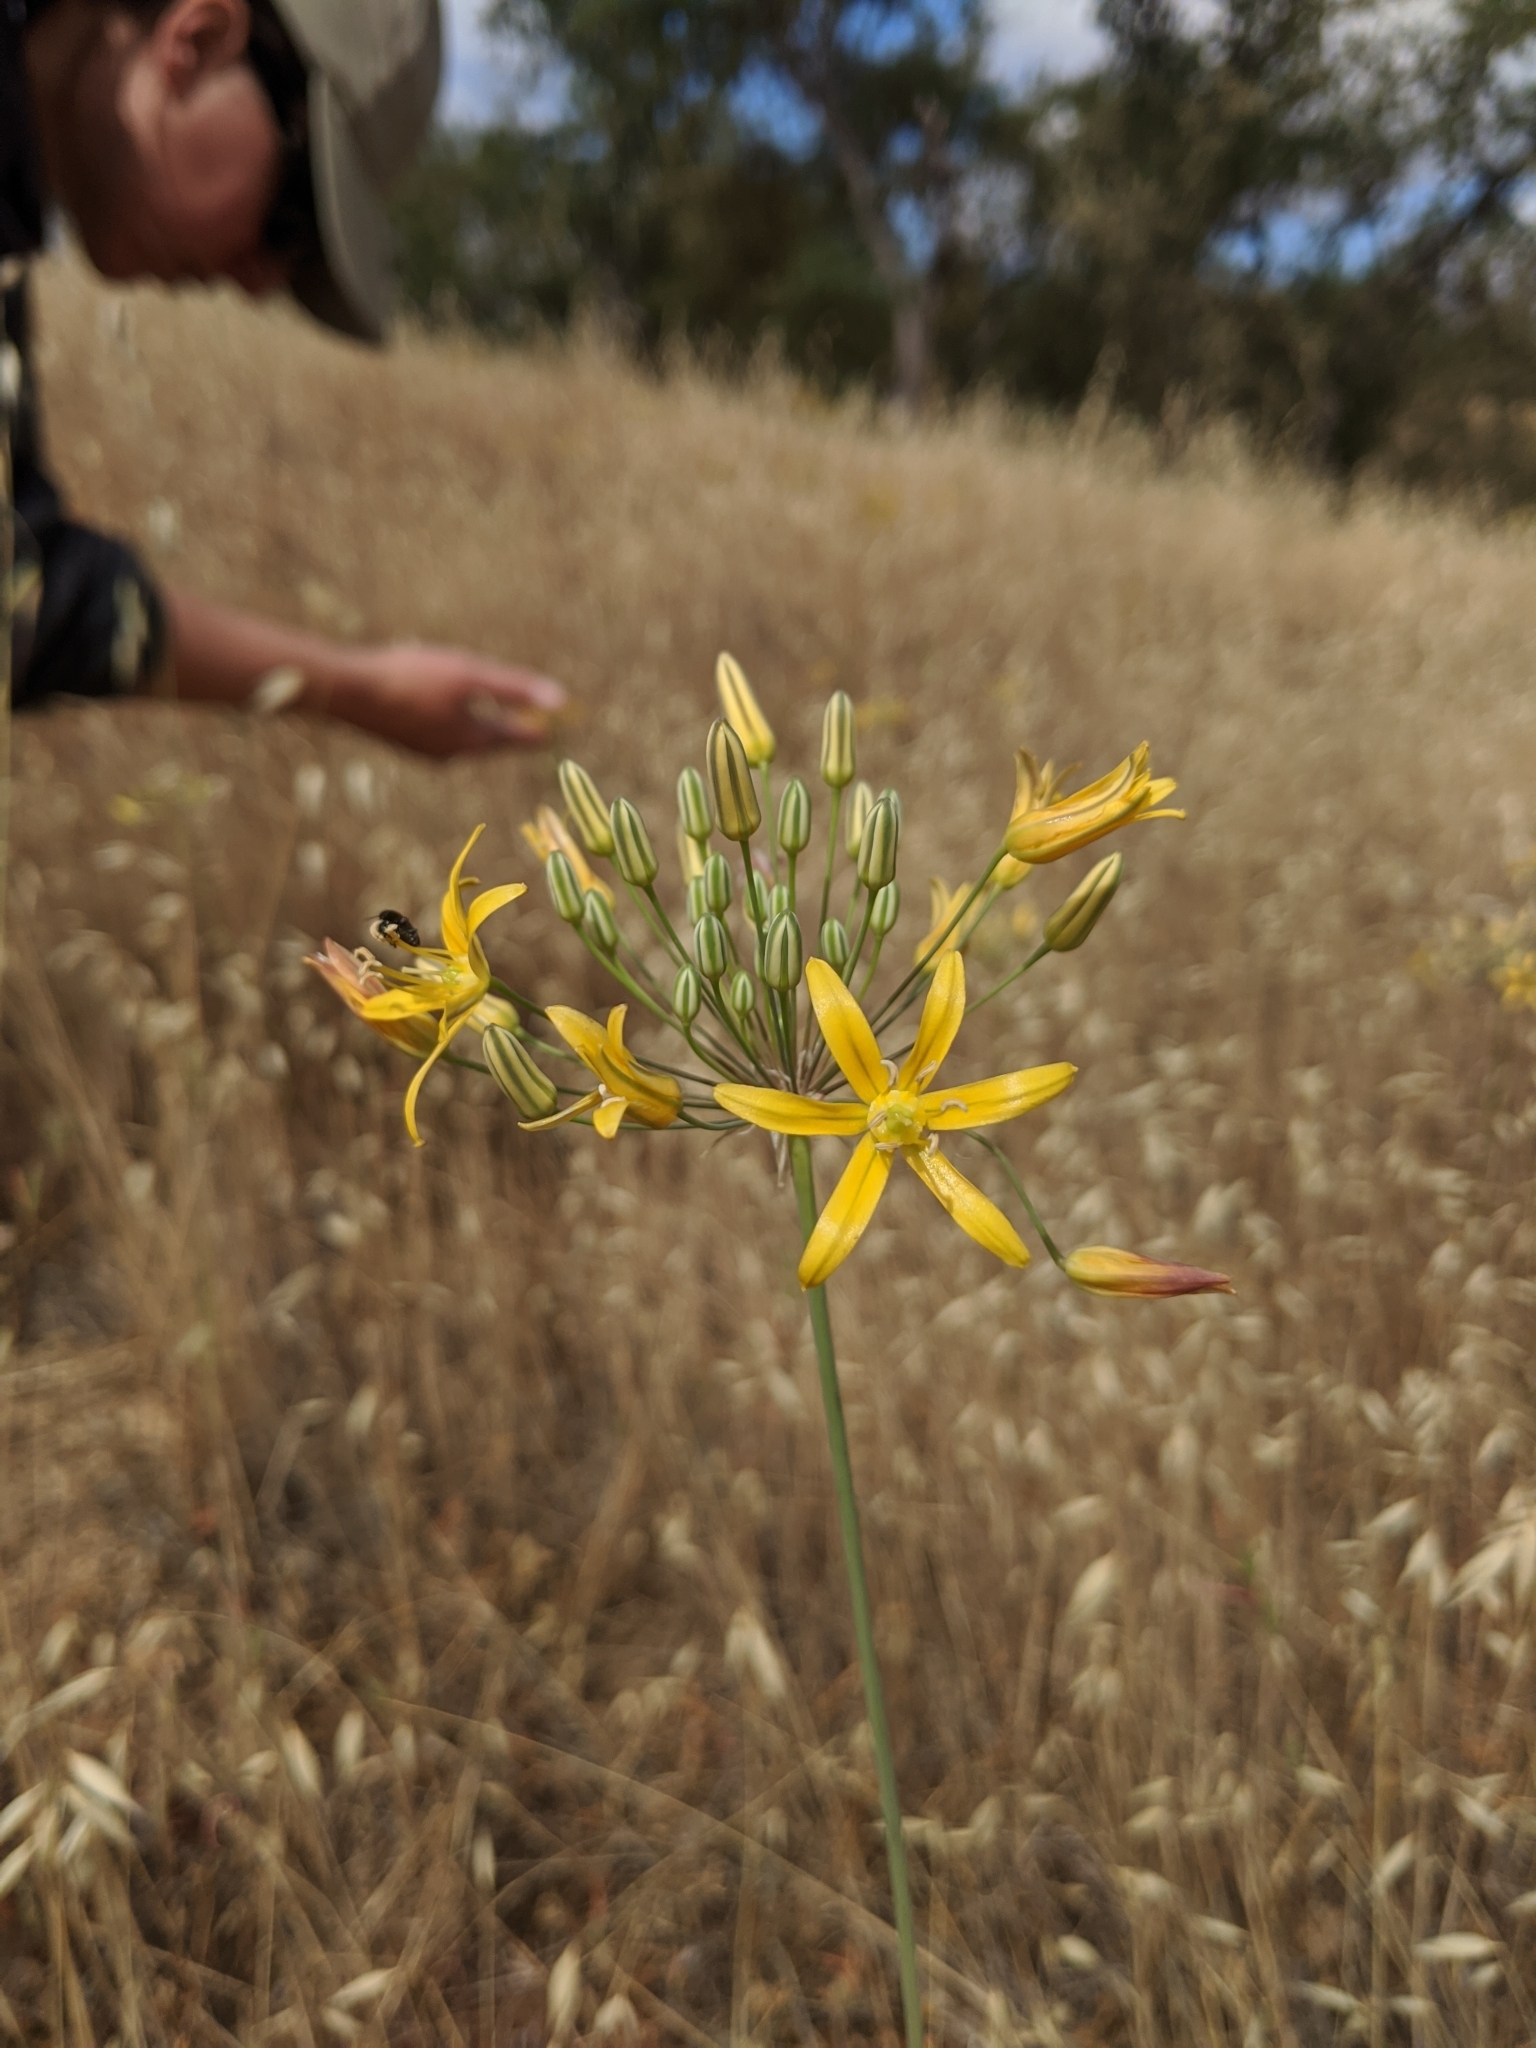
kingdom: Plantae
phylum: Tracheophyta
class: Liliopsida
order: Asparagales
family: Asparagaceae
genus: Bloomeria
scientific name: Bloomeria crocea
